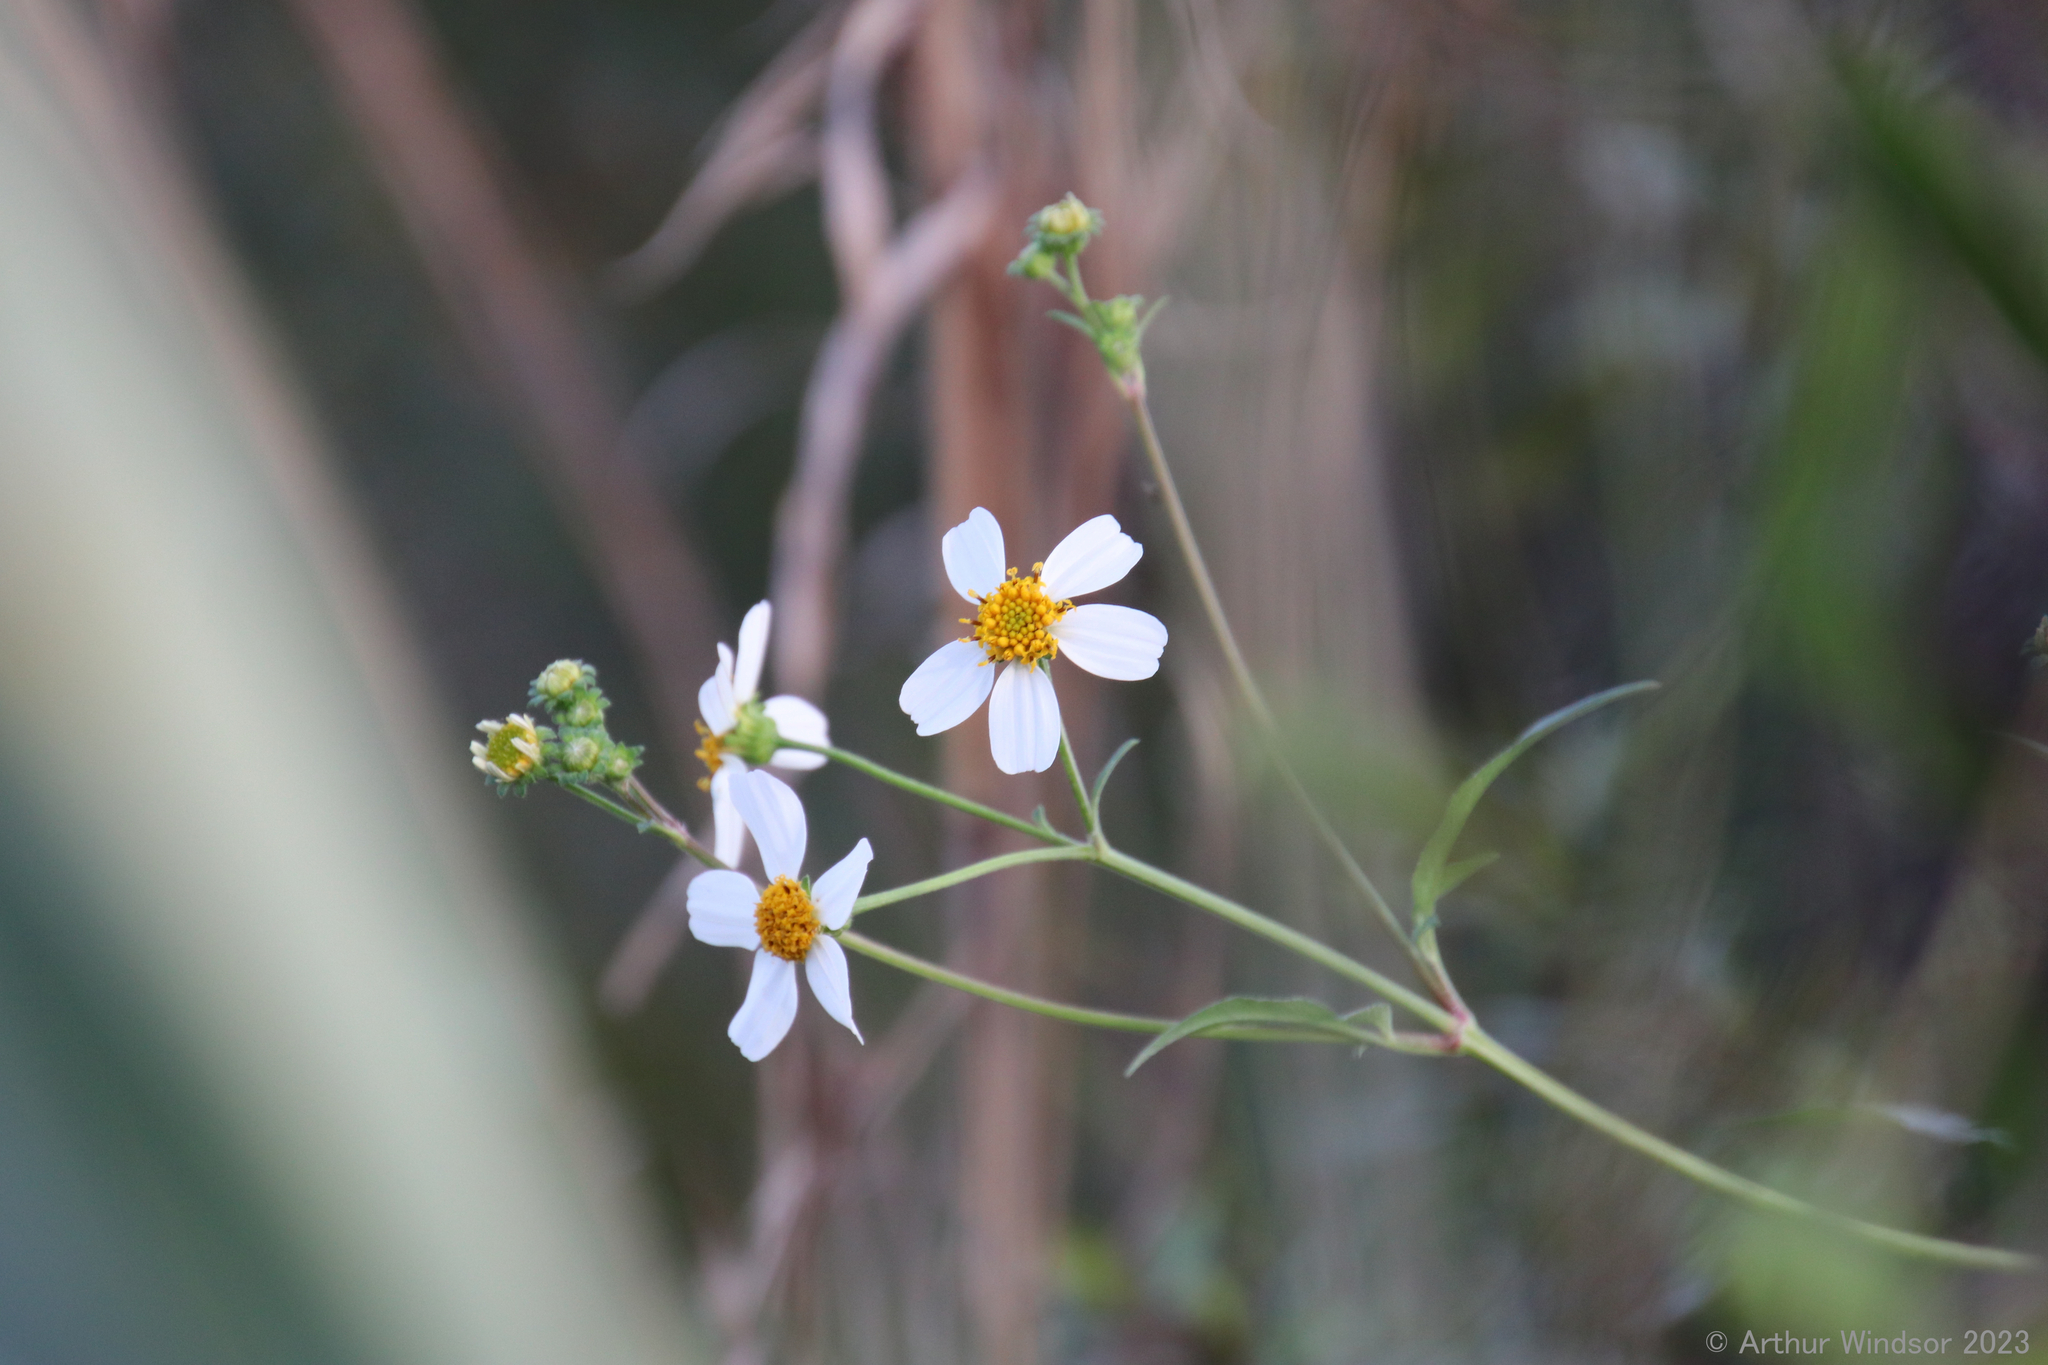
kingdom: Plantae
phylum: Tracheophyta
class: Magnoliopsida
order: Asterales
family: Asteraceae
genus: Bidens
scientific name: Bidens alba
